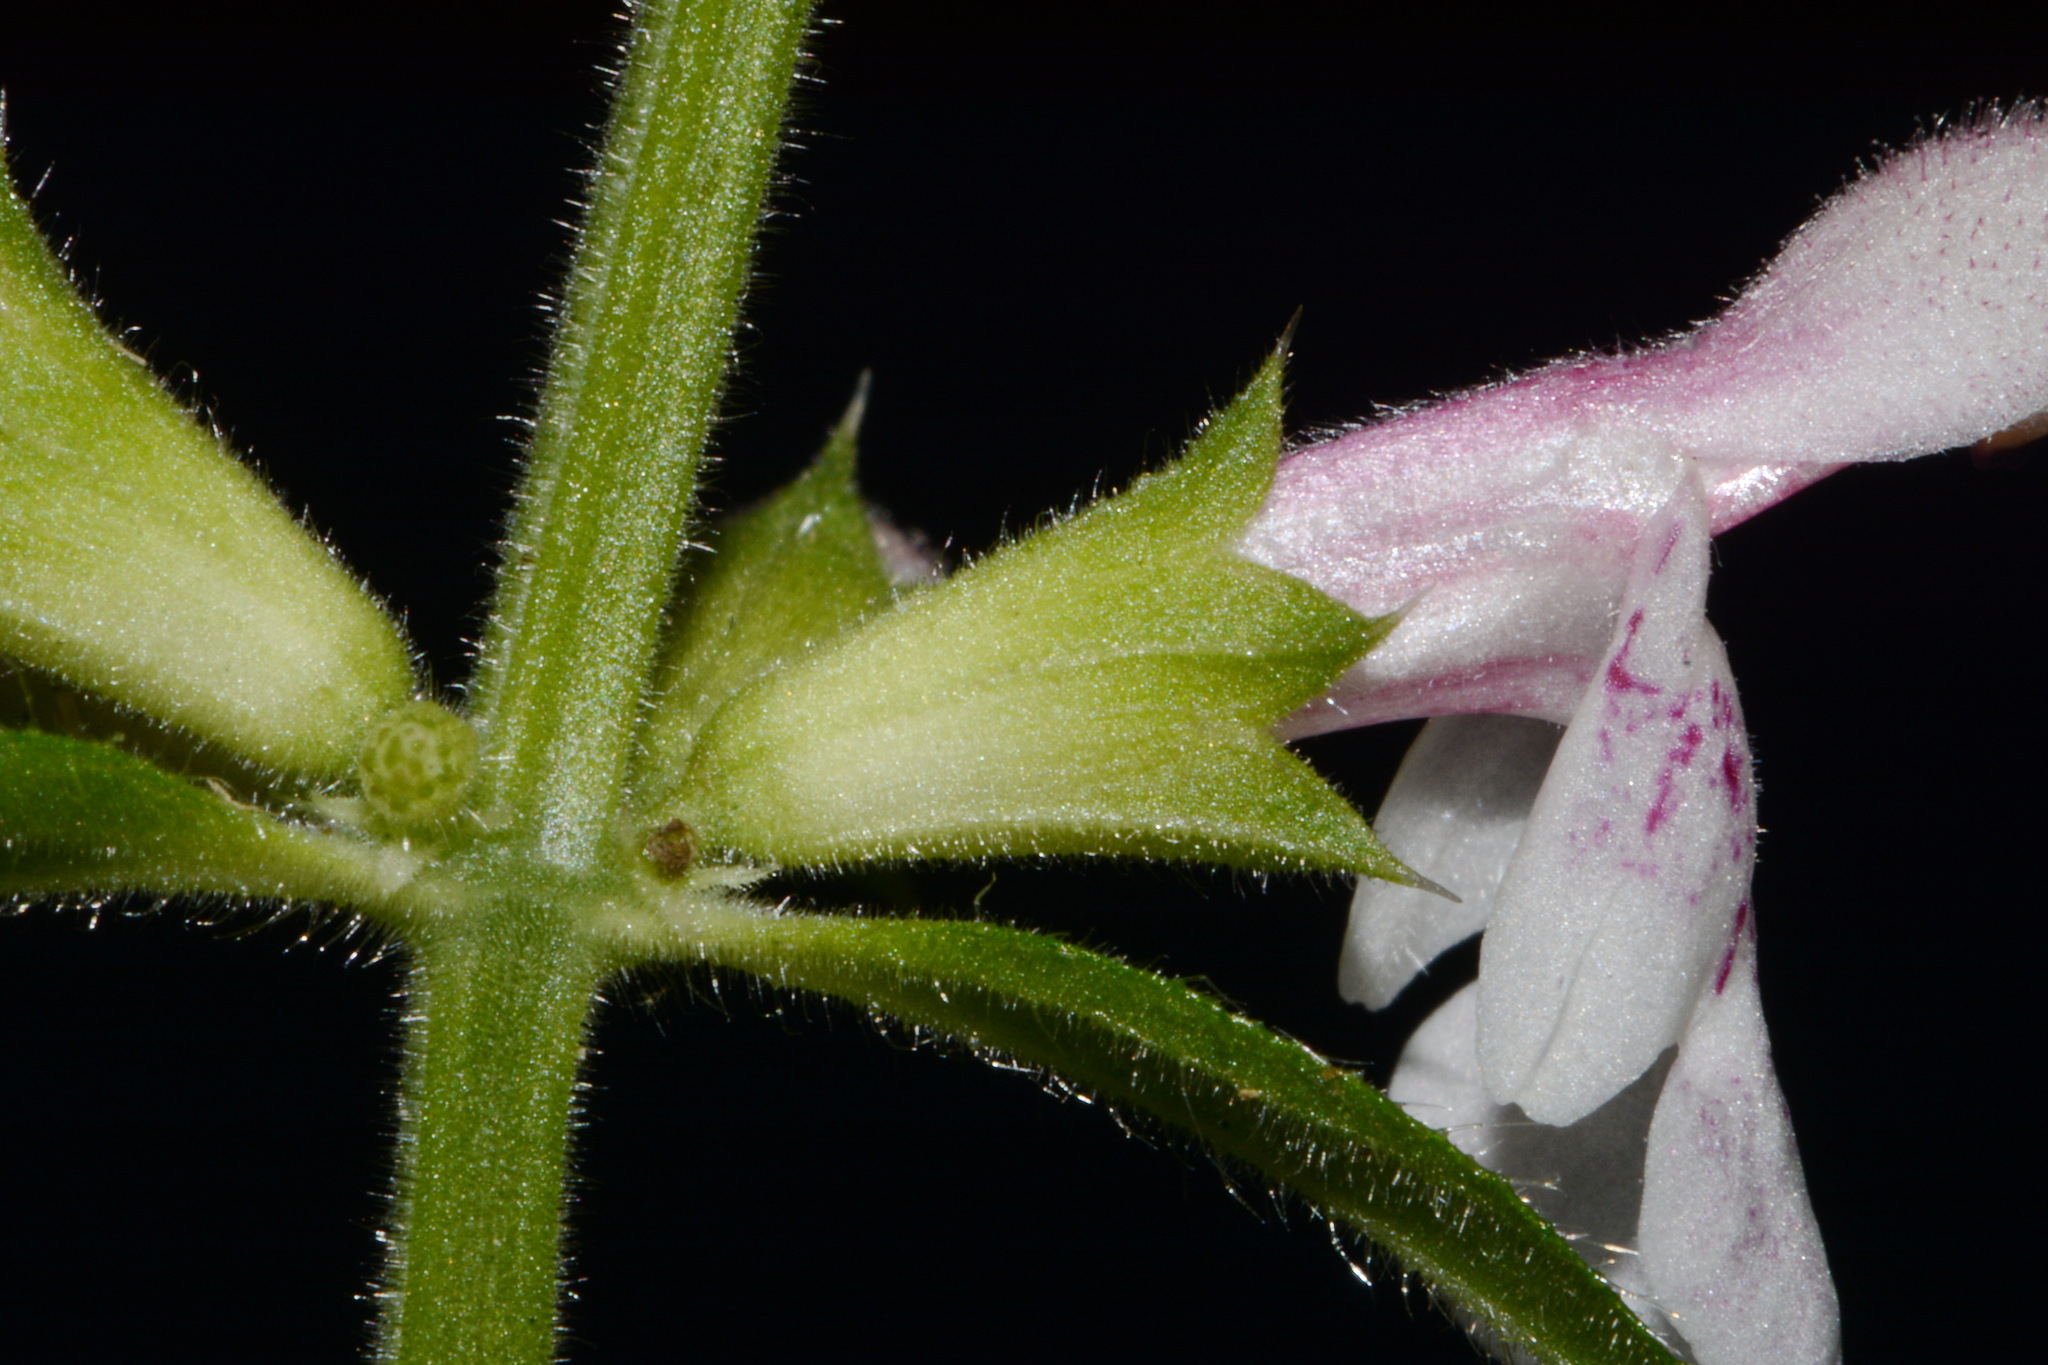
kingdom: Plantae
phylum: Tracheophyta
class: Magnoliopsida
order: Lamiales
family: Lamiaceae
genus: Stachys
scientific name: Stachys nelsonii
